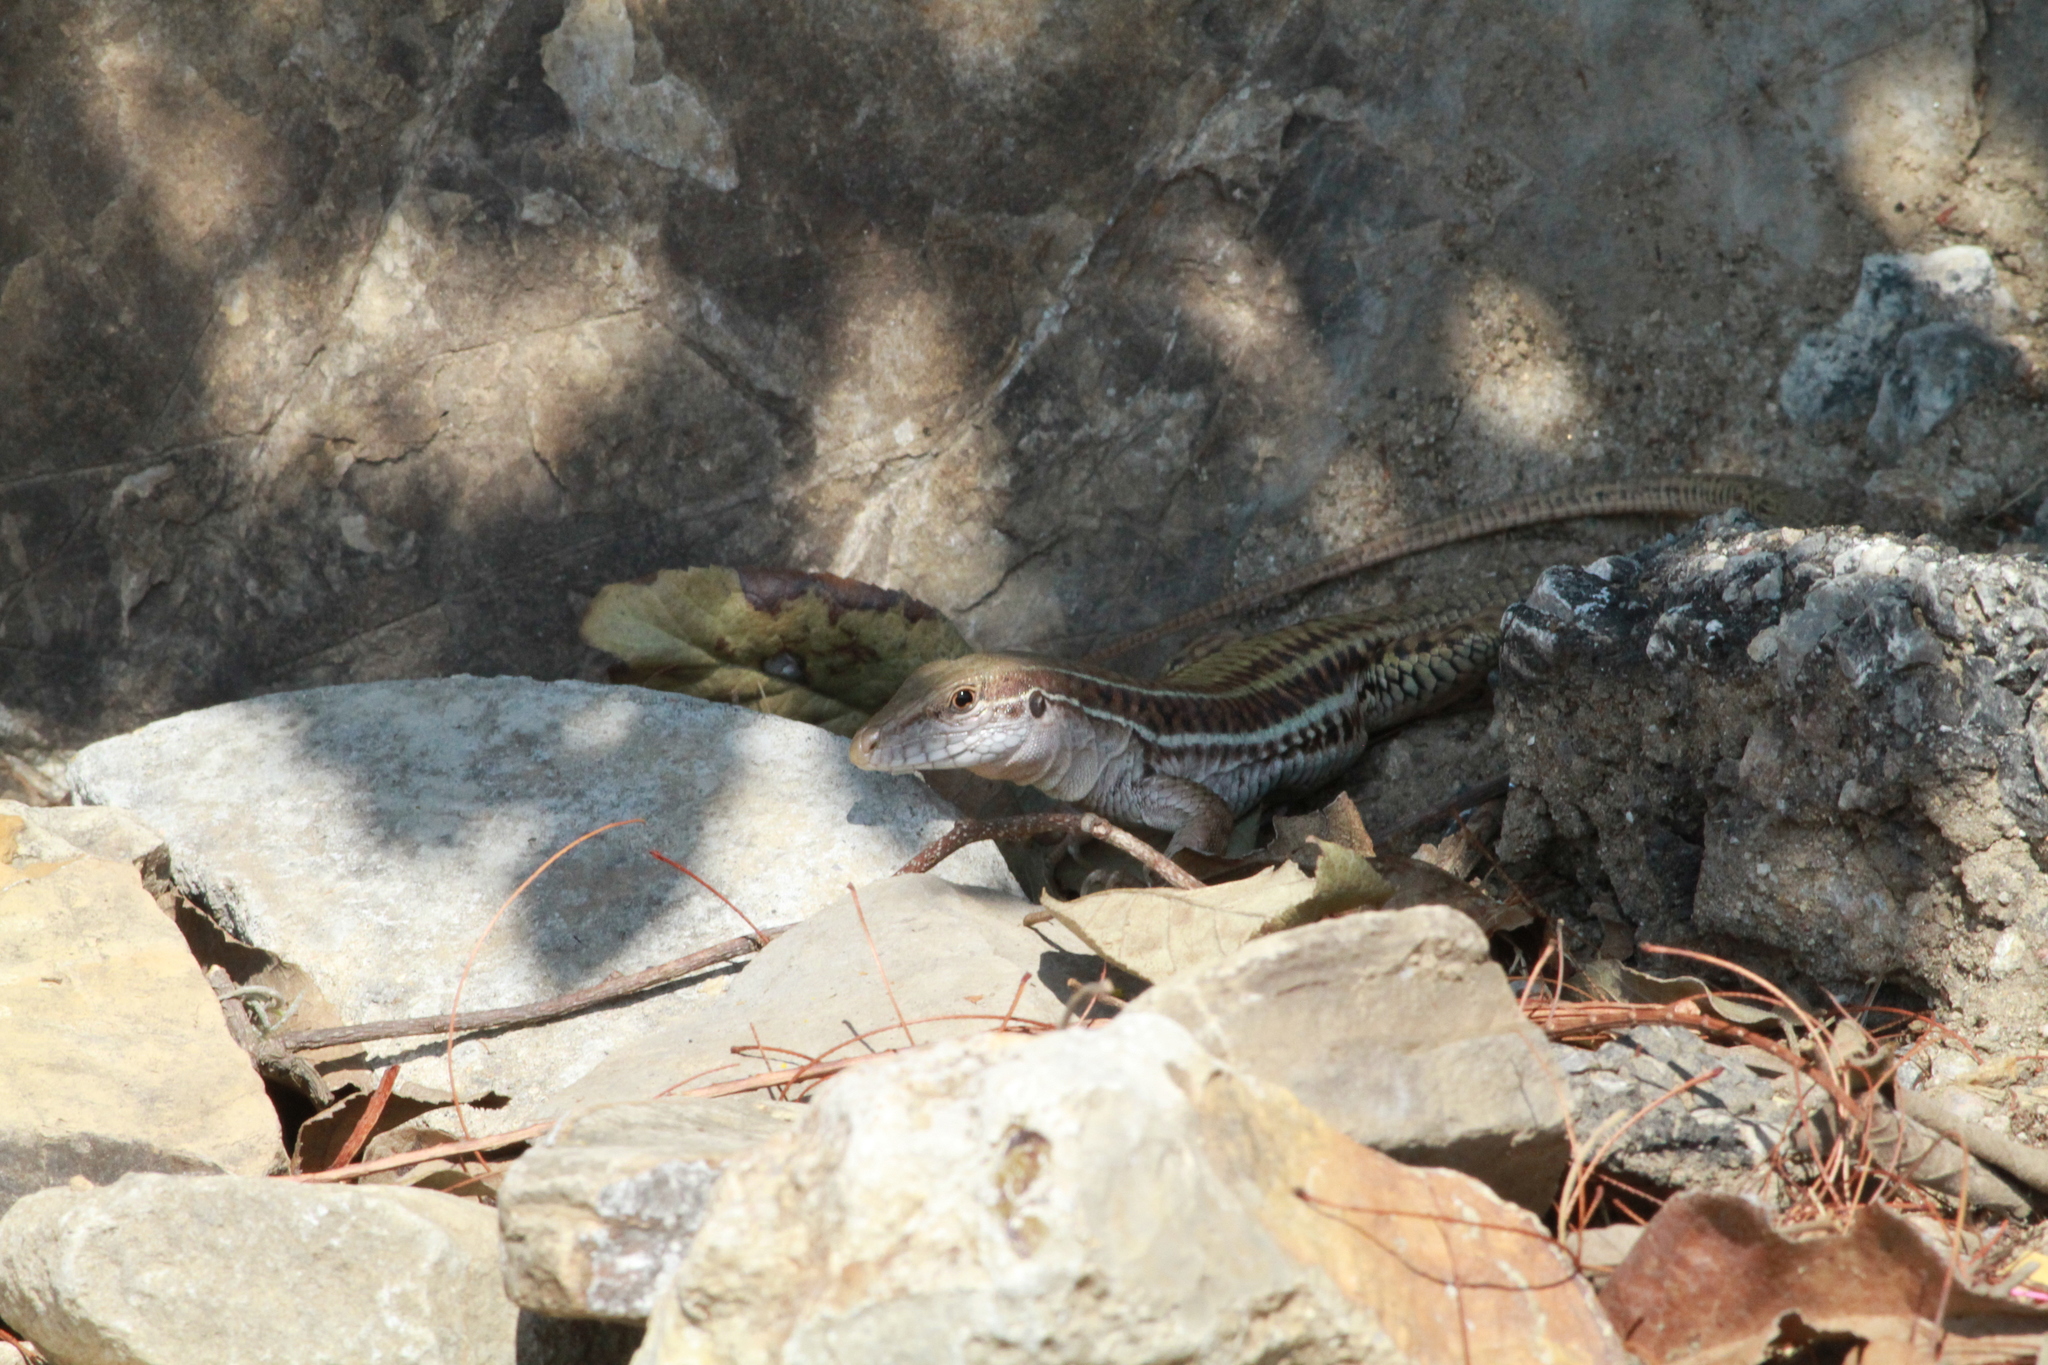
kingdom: Animalia
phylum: Chordata
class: Squamata
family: Teiidae
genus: Aspidoscelis
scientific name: Aspidoscelis sackii
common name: Giant spotted whiptail [gigas]
